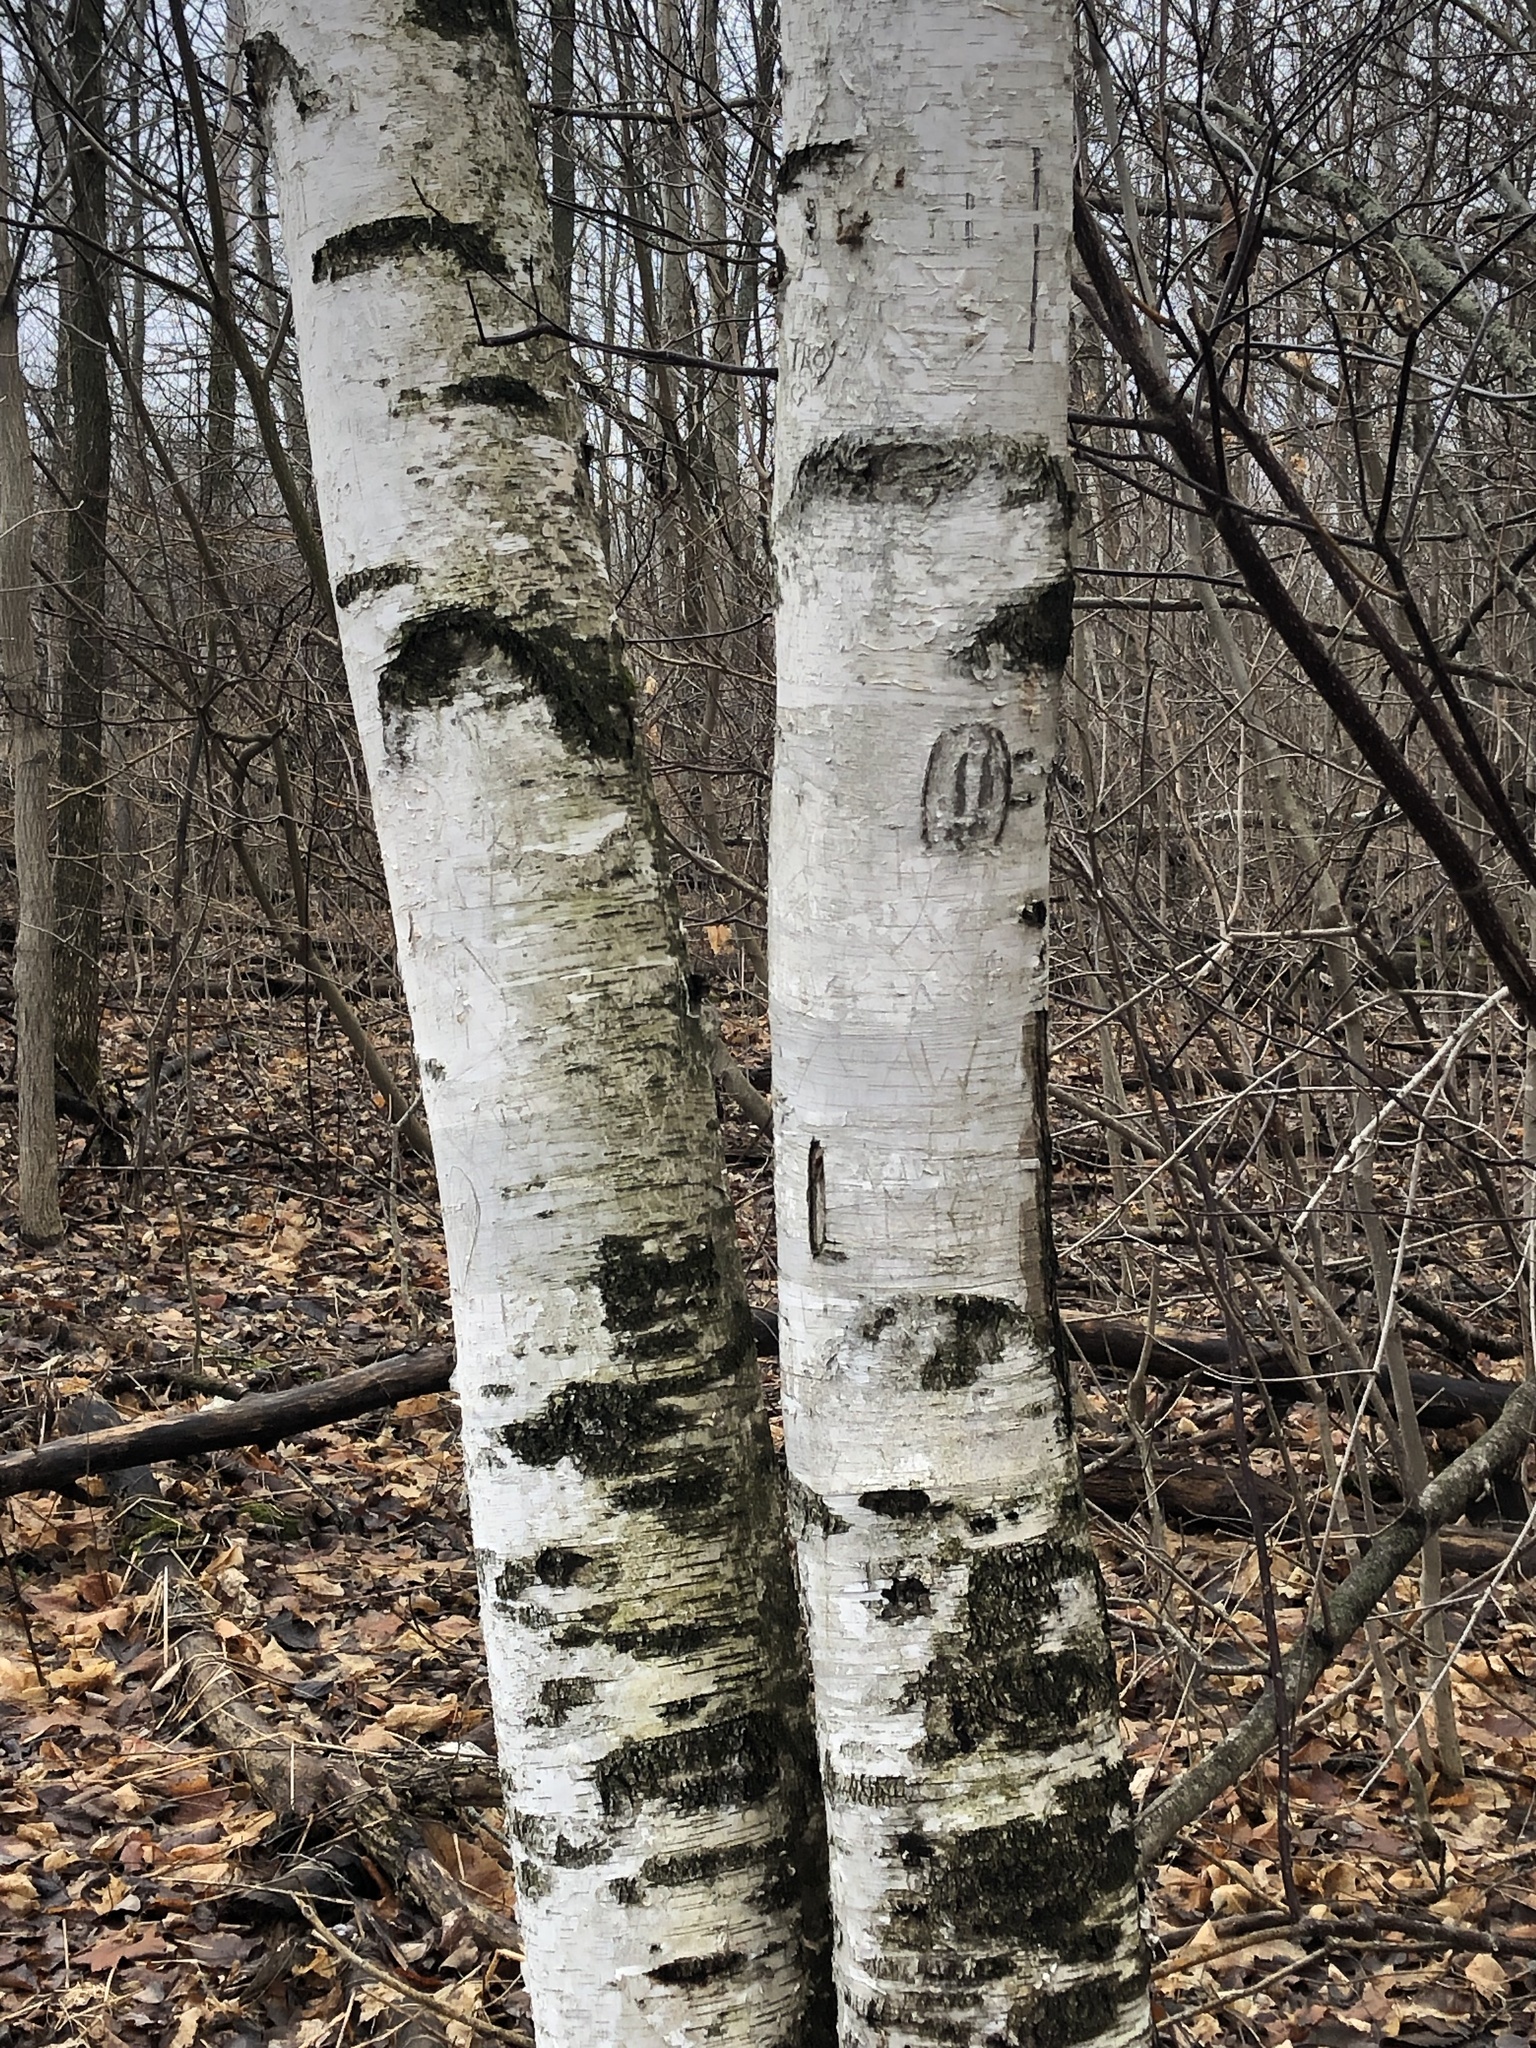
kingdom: Plantae
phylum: Tracheophyta
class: Magnoliopsida
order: Fagales
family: Betulaceae
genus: Betula
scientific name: Betula papyrifera
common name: Paper birch
